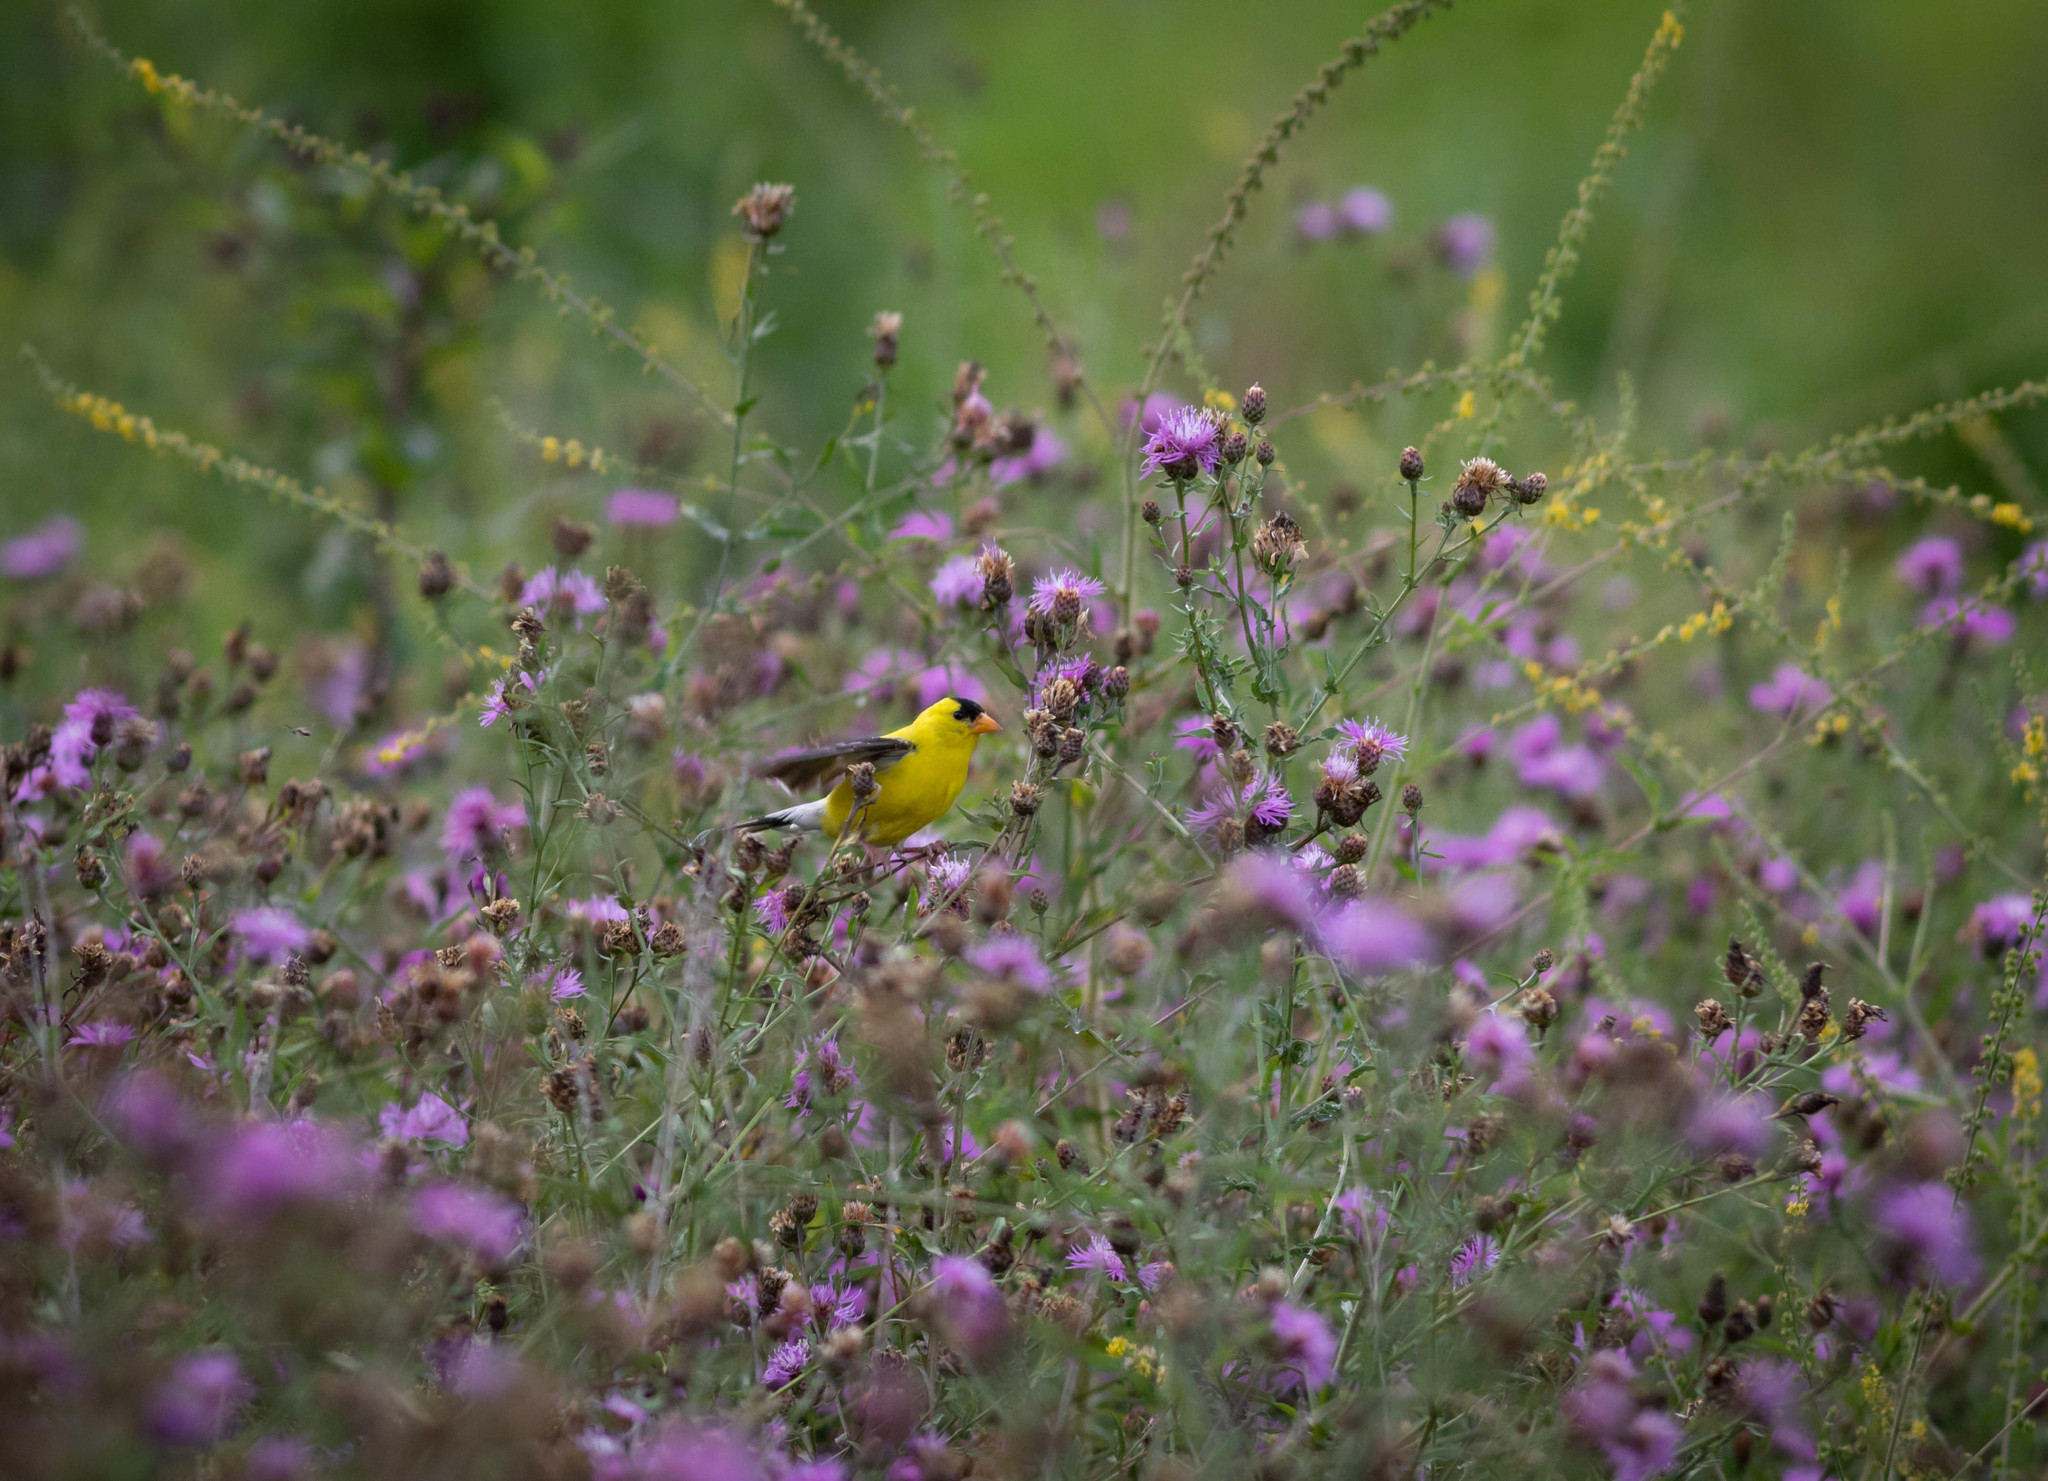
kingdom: Animalia
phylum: Chordata
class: Aves
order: Passeriformes
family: Fringillidae
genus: Spinus
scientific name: Spinus tristis
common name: American goldfinch
